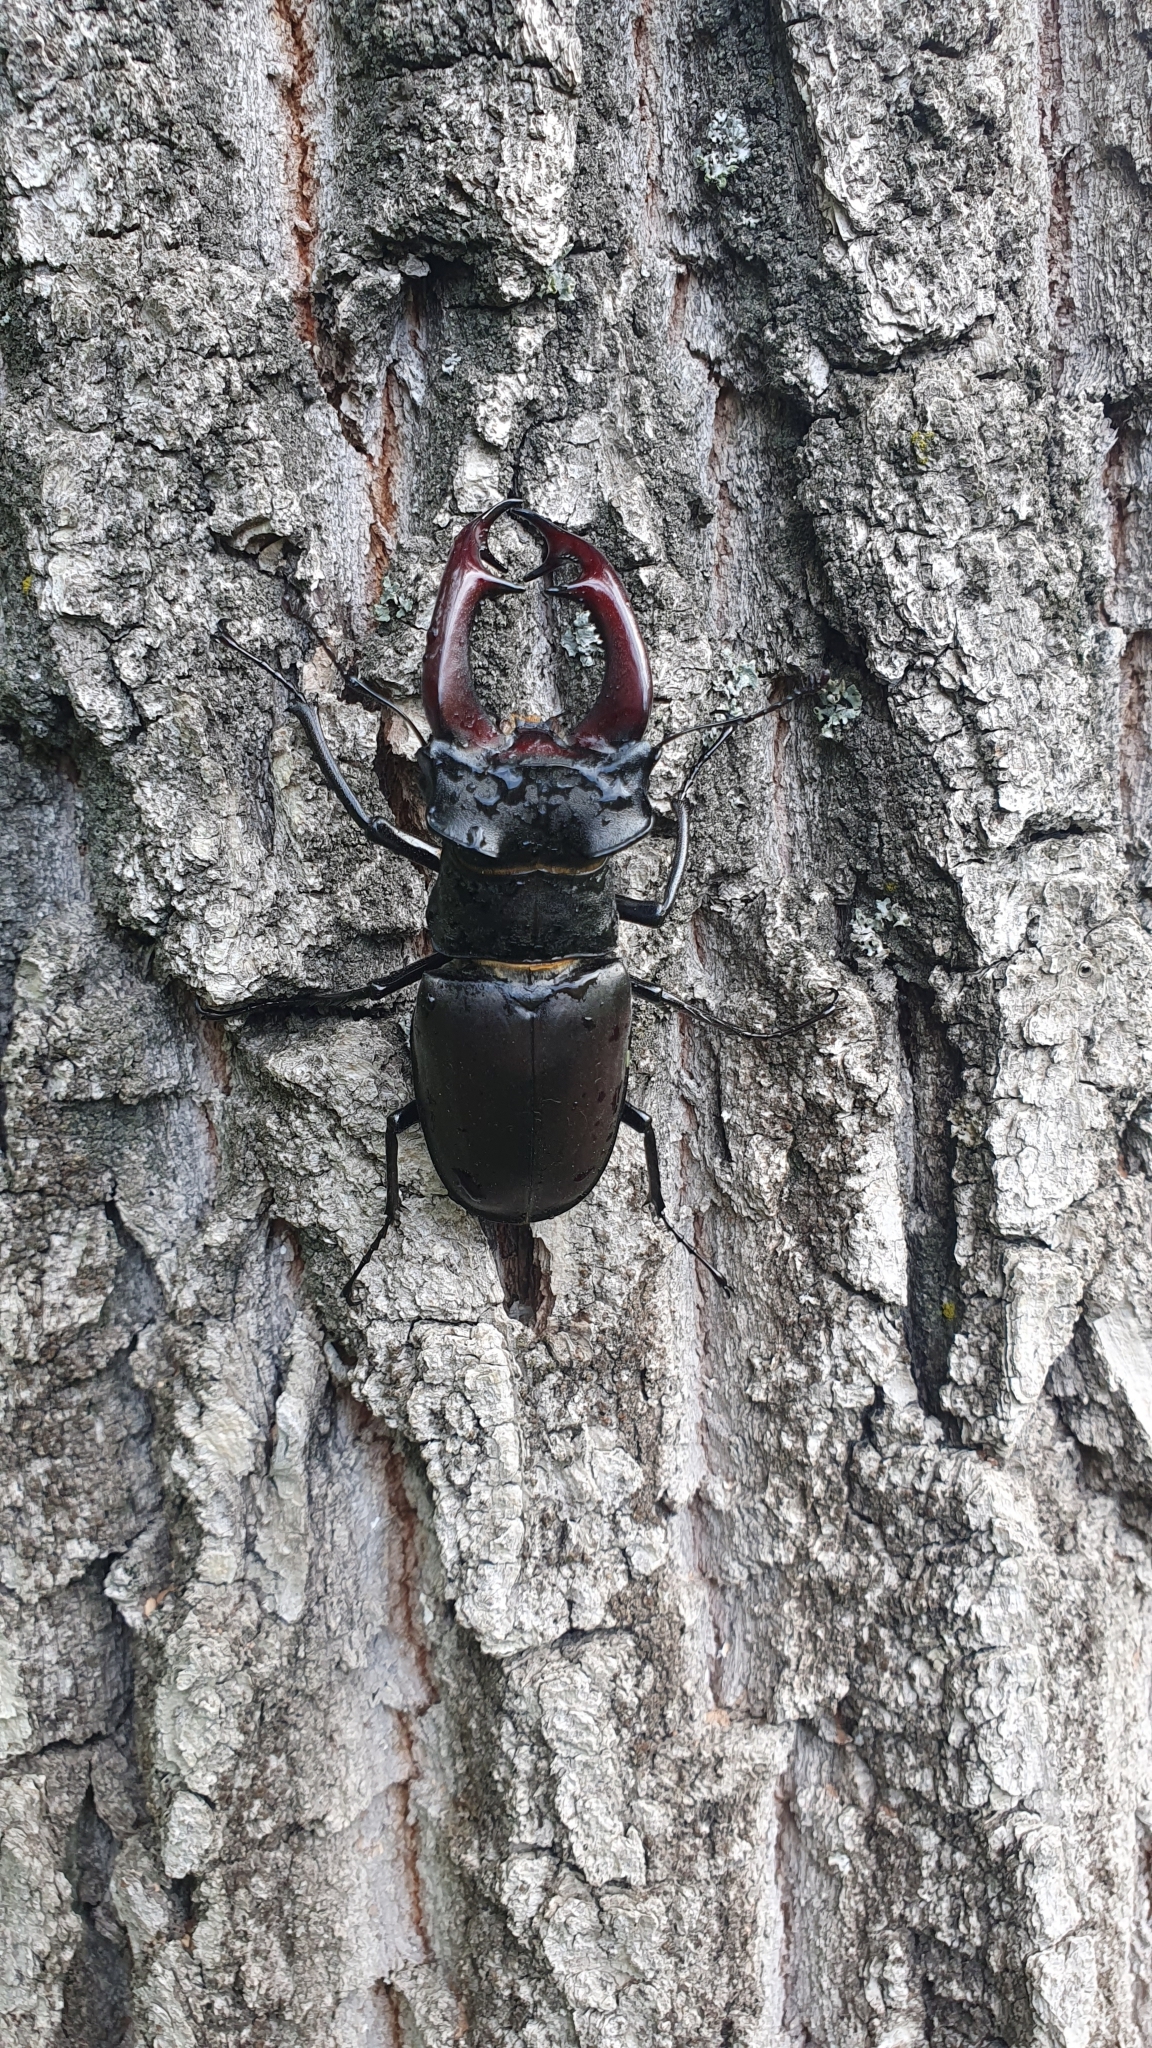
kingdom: Animalia
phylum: Arthropoda
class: Insecta
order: Coleoptera
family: Lucanidae
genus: Lucanus
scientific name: Lucanus cervus
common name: Stag beetle
